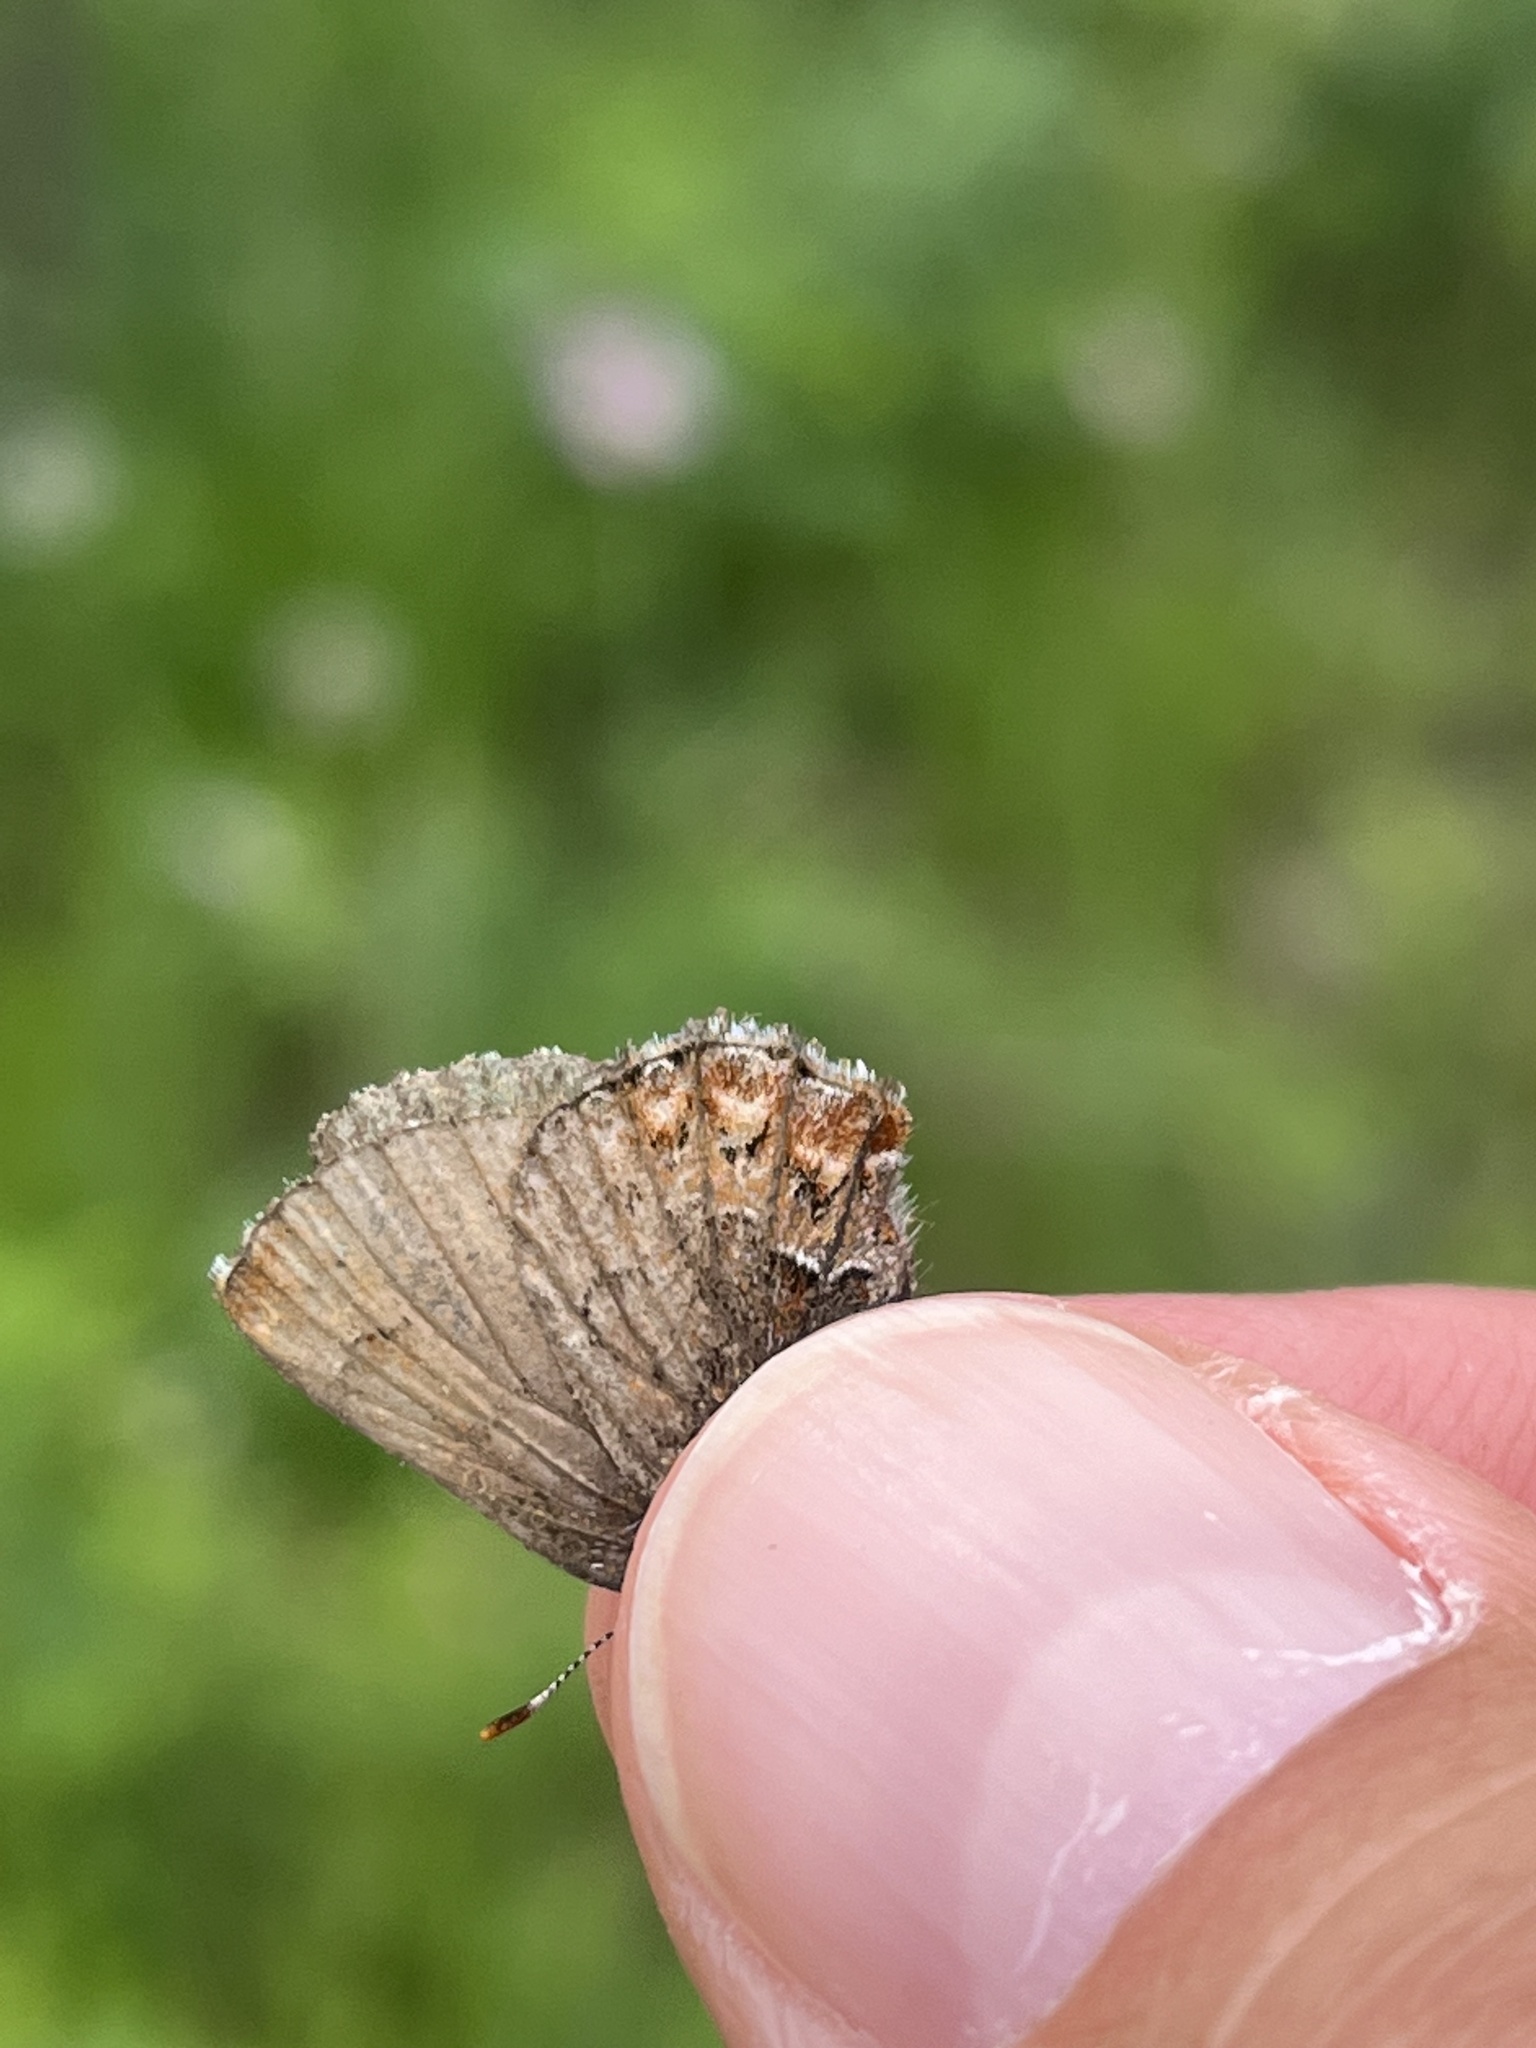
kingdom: Animalia
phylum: Arthropoda
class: Insecta
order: Lepidoptera
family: Lycaenidae
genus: Incisalia
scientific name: Incisalia eryphon
